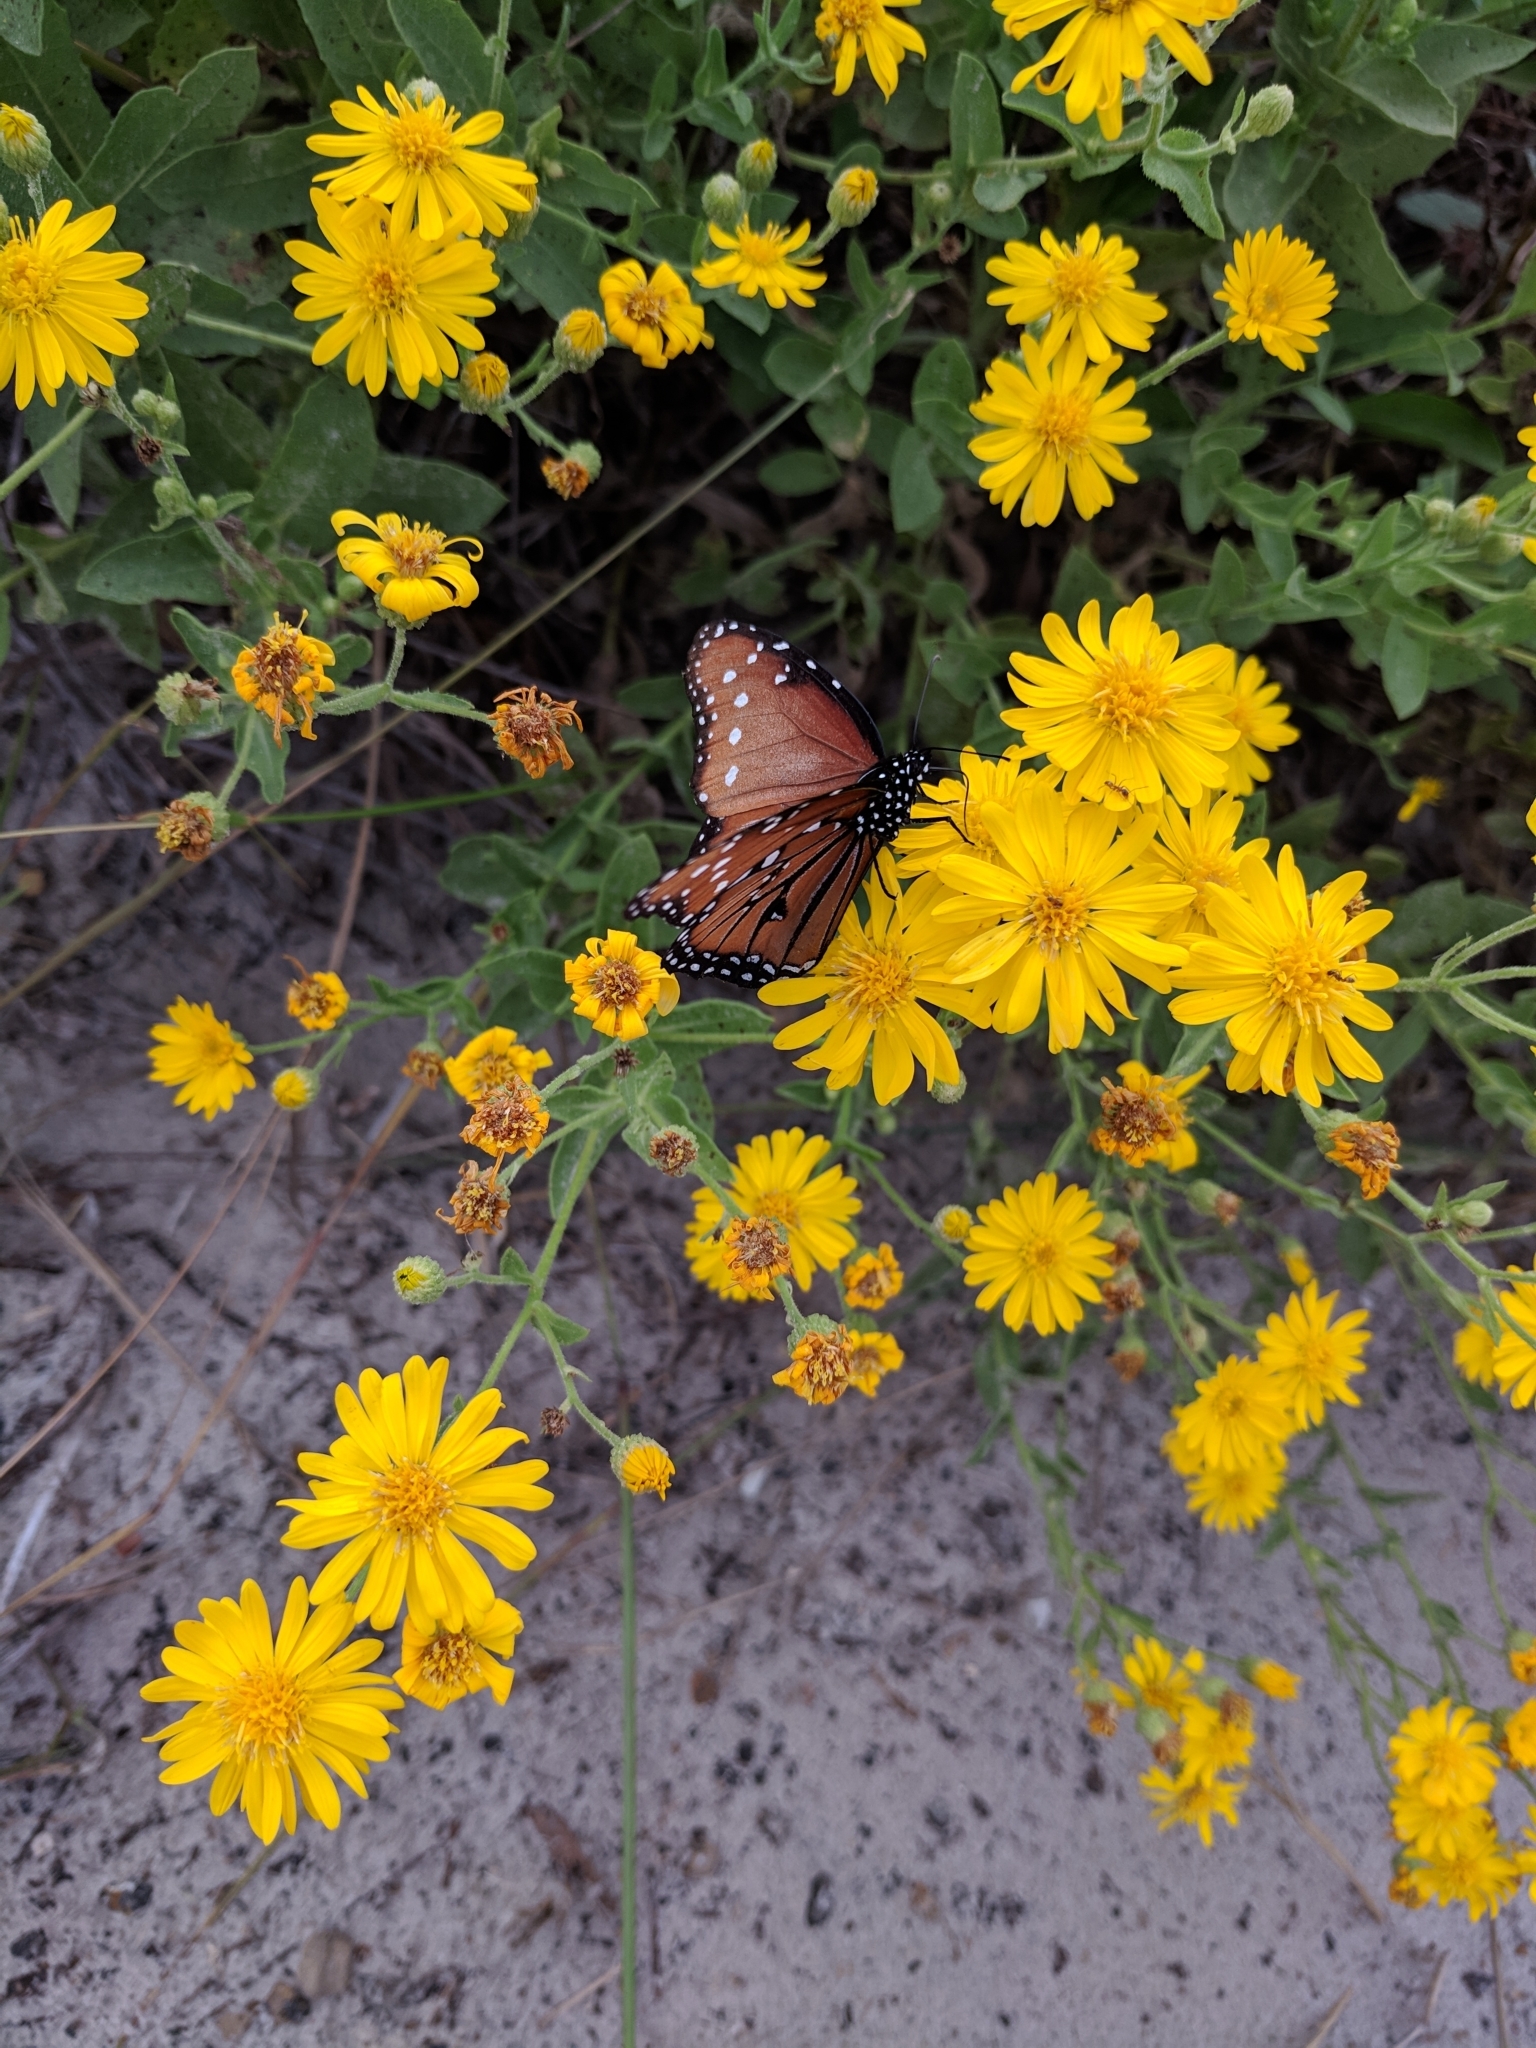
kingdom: Animalia
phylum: Arthropoda
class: Insecta
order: Lepidoptera
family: Nymphalidae
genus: Danaus
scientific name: Danaus gilippus
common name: Queen
